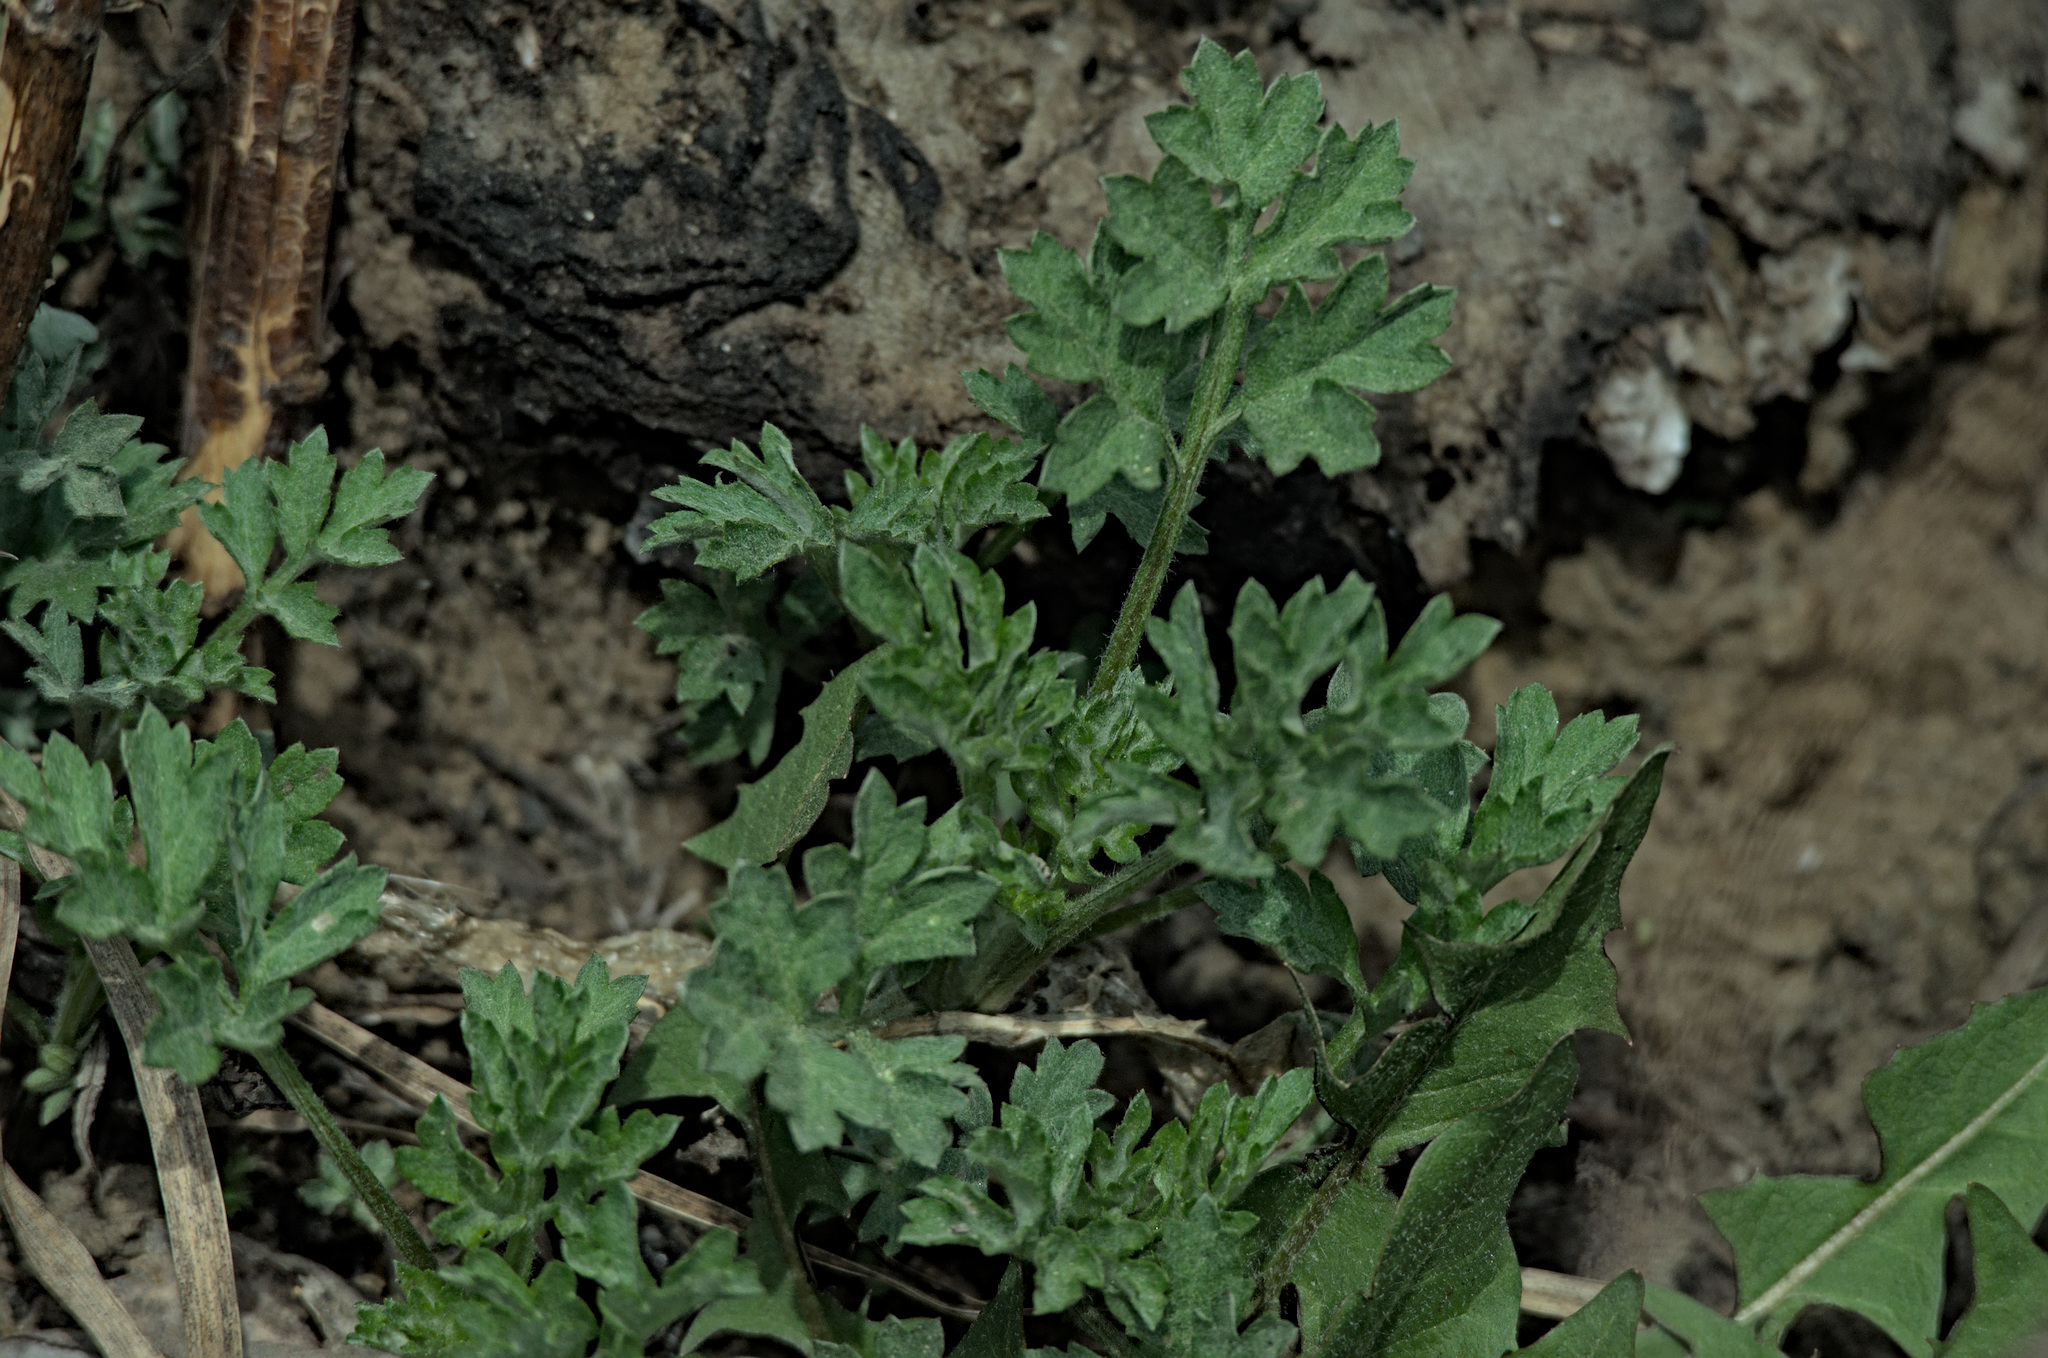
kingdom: Plantae
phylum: Tracheophyta
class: Magnoliopsida
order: Asterales
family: Asteraceae
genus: Artemisia
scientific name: Artemisia vulgaris
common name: Mugwort
